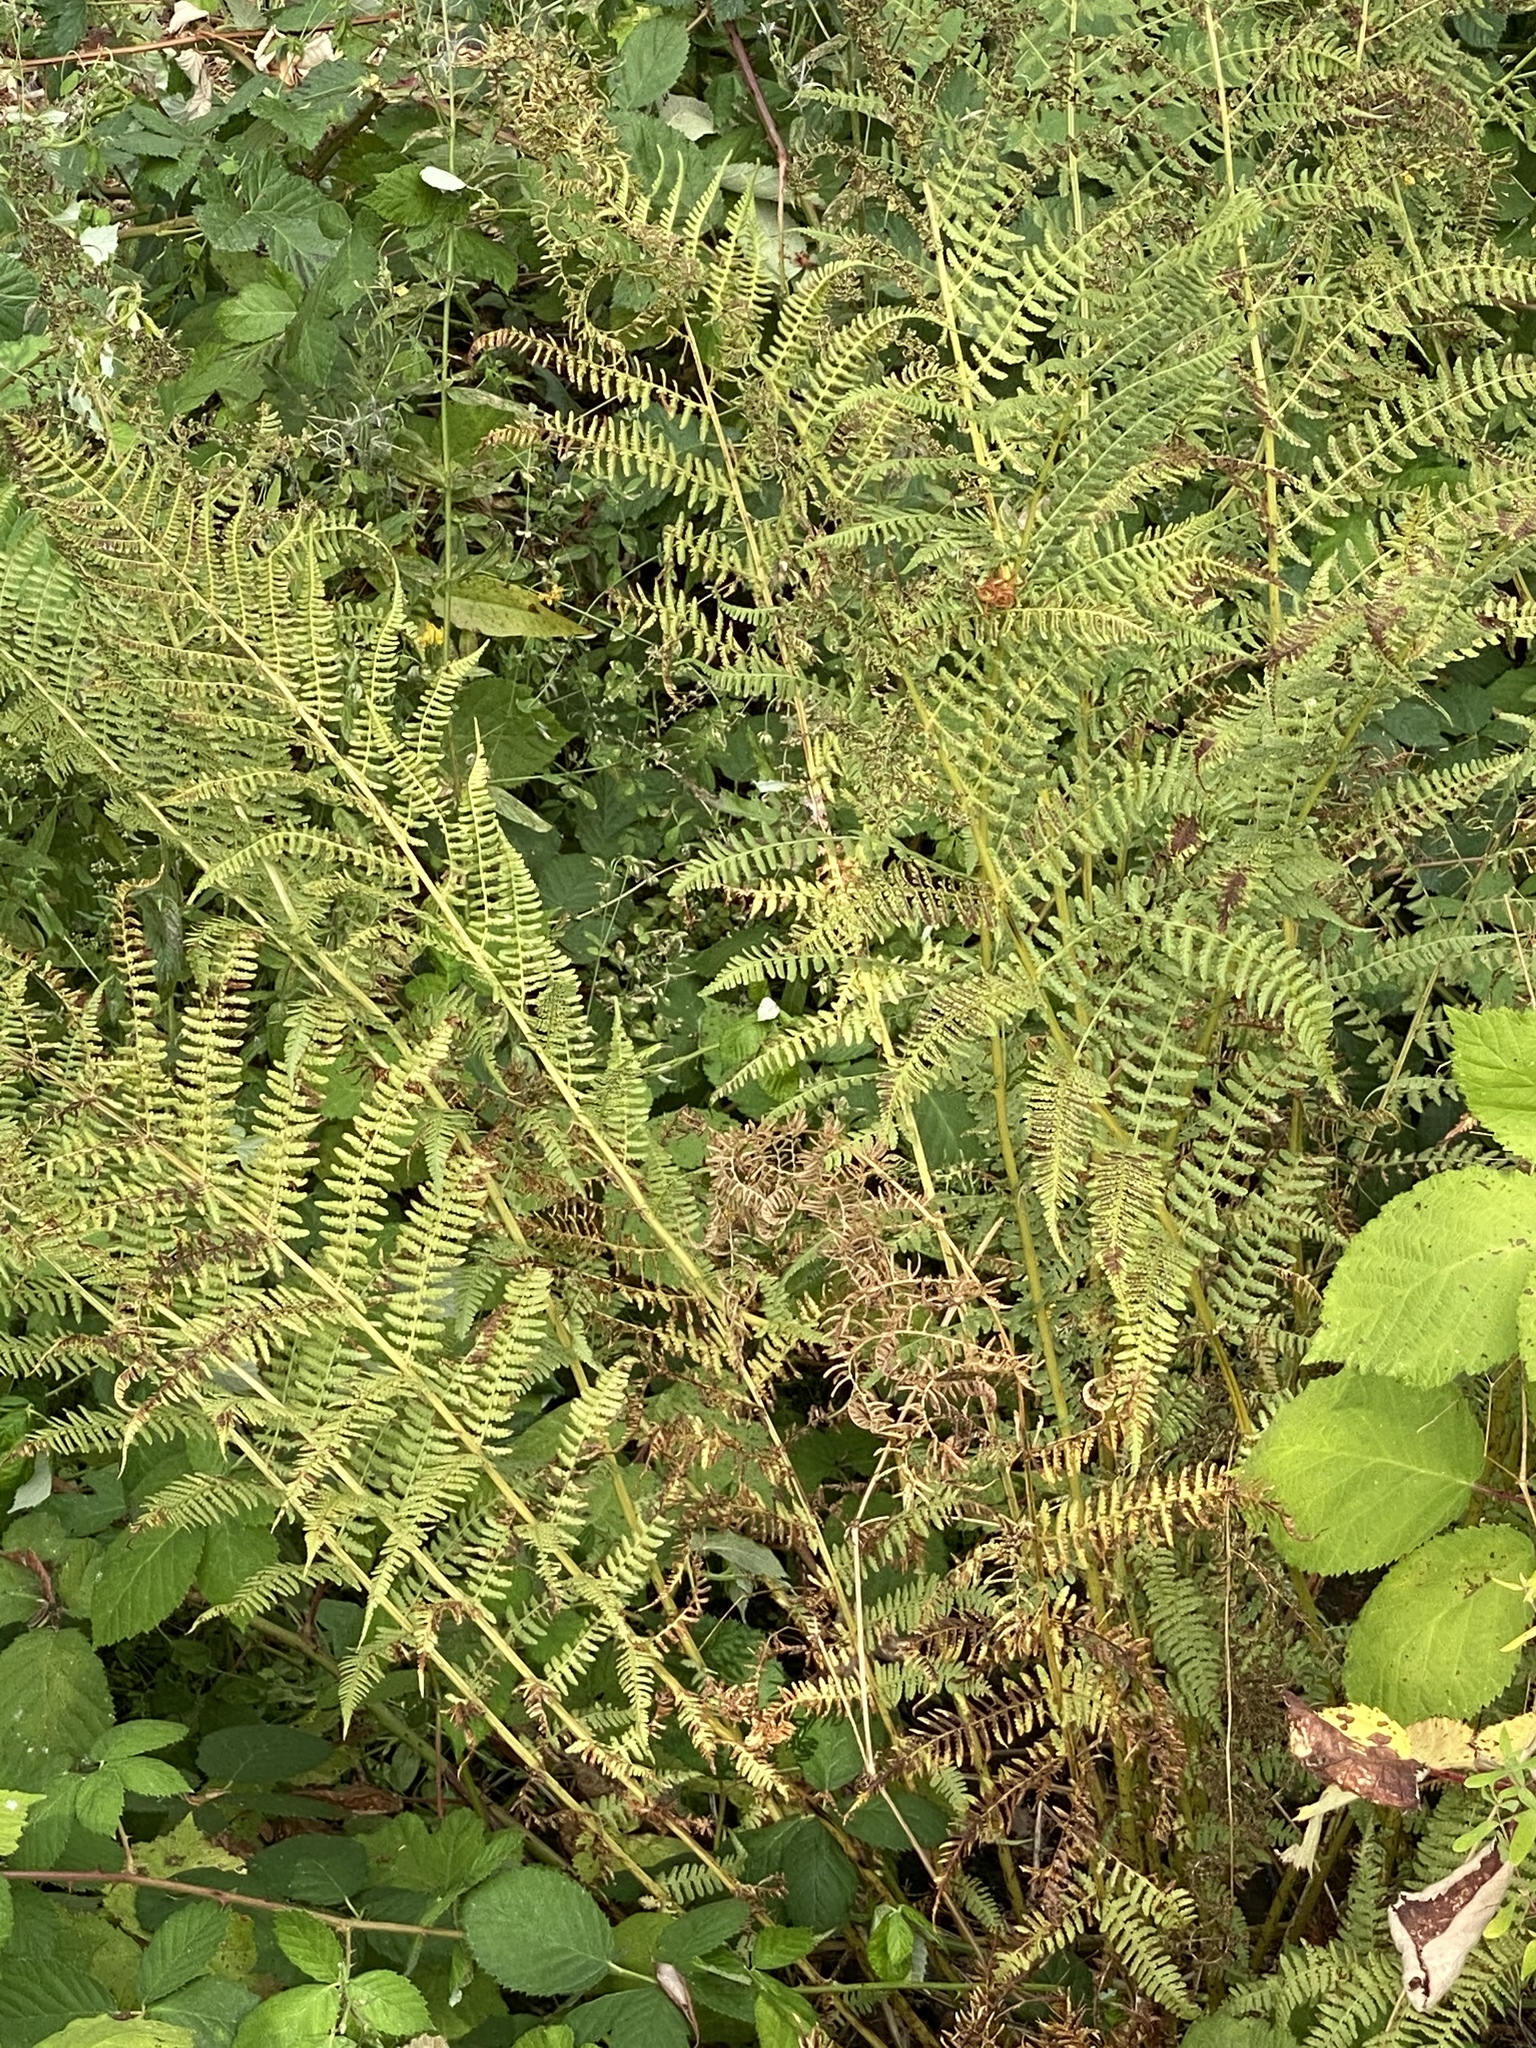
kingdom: Plantae
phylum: Tracheophyta
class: Polypodiopsida
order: Polypodiales
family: Athyriaceae
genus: Athyrium
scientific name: Athyrium filix-femina
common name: Lady fern
